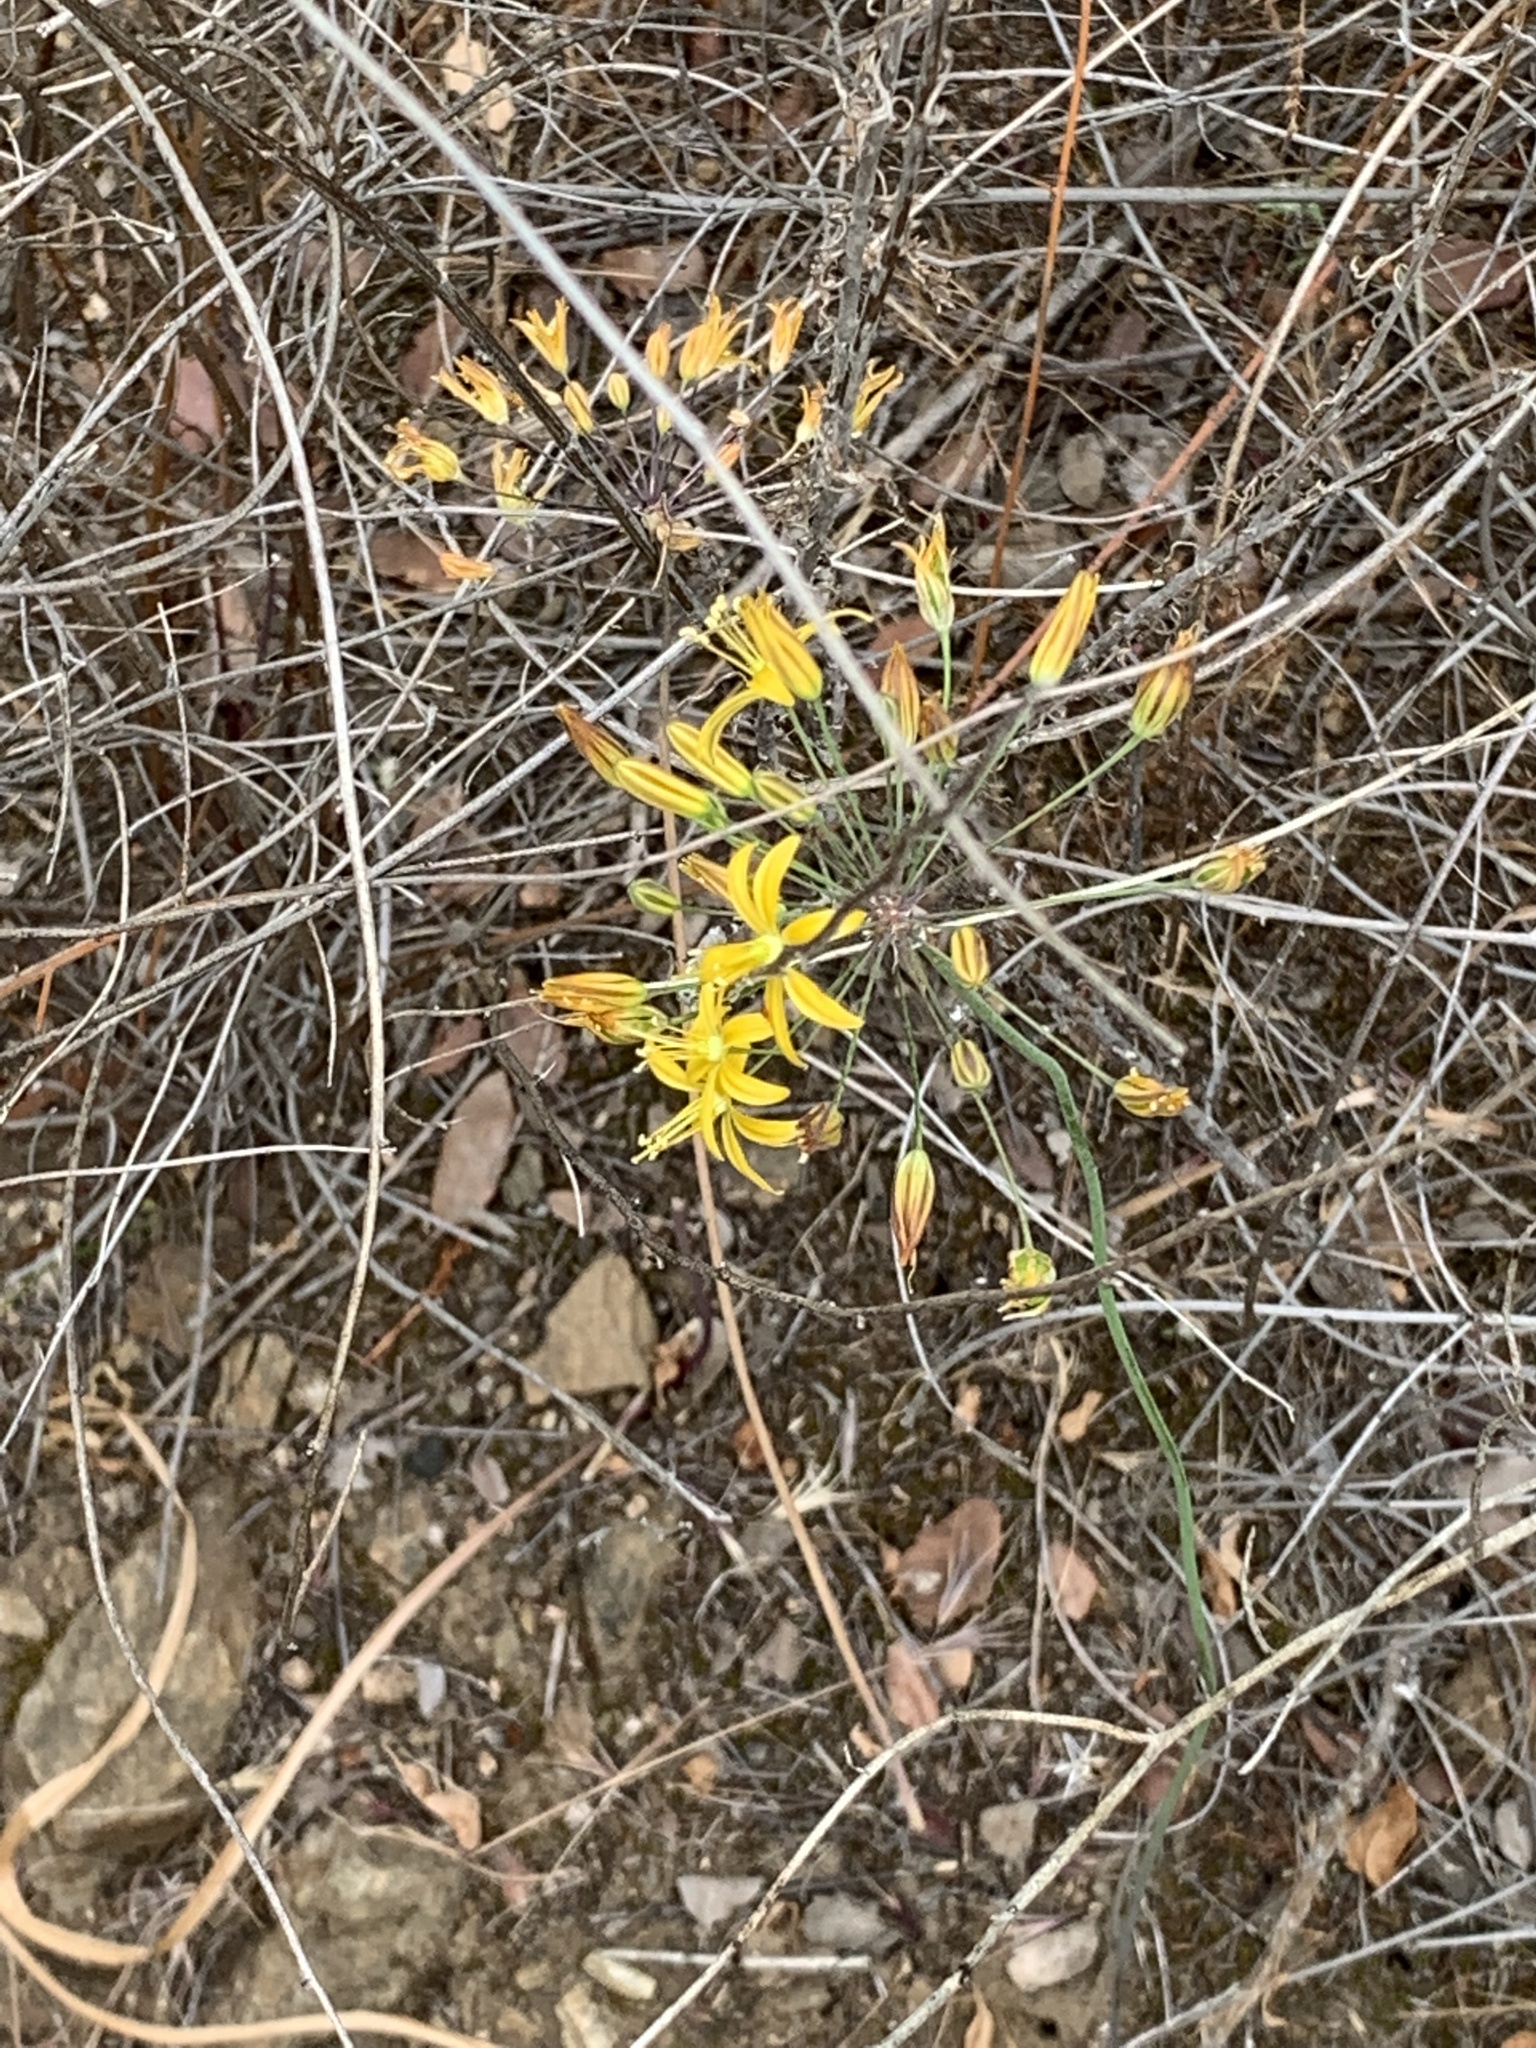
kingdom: Plantae
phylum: Tracheophyta
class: Liliopsida
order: Asparagales
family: Asparagaceae
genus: Bloomeria
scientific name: Bloomeria crocea
